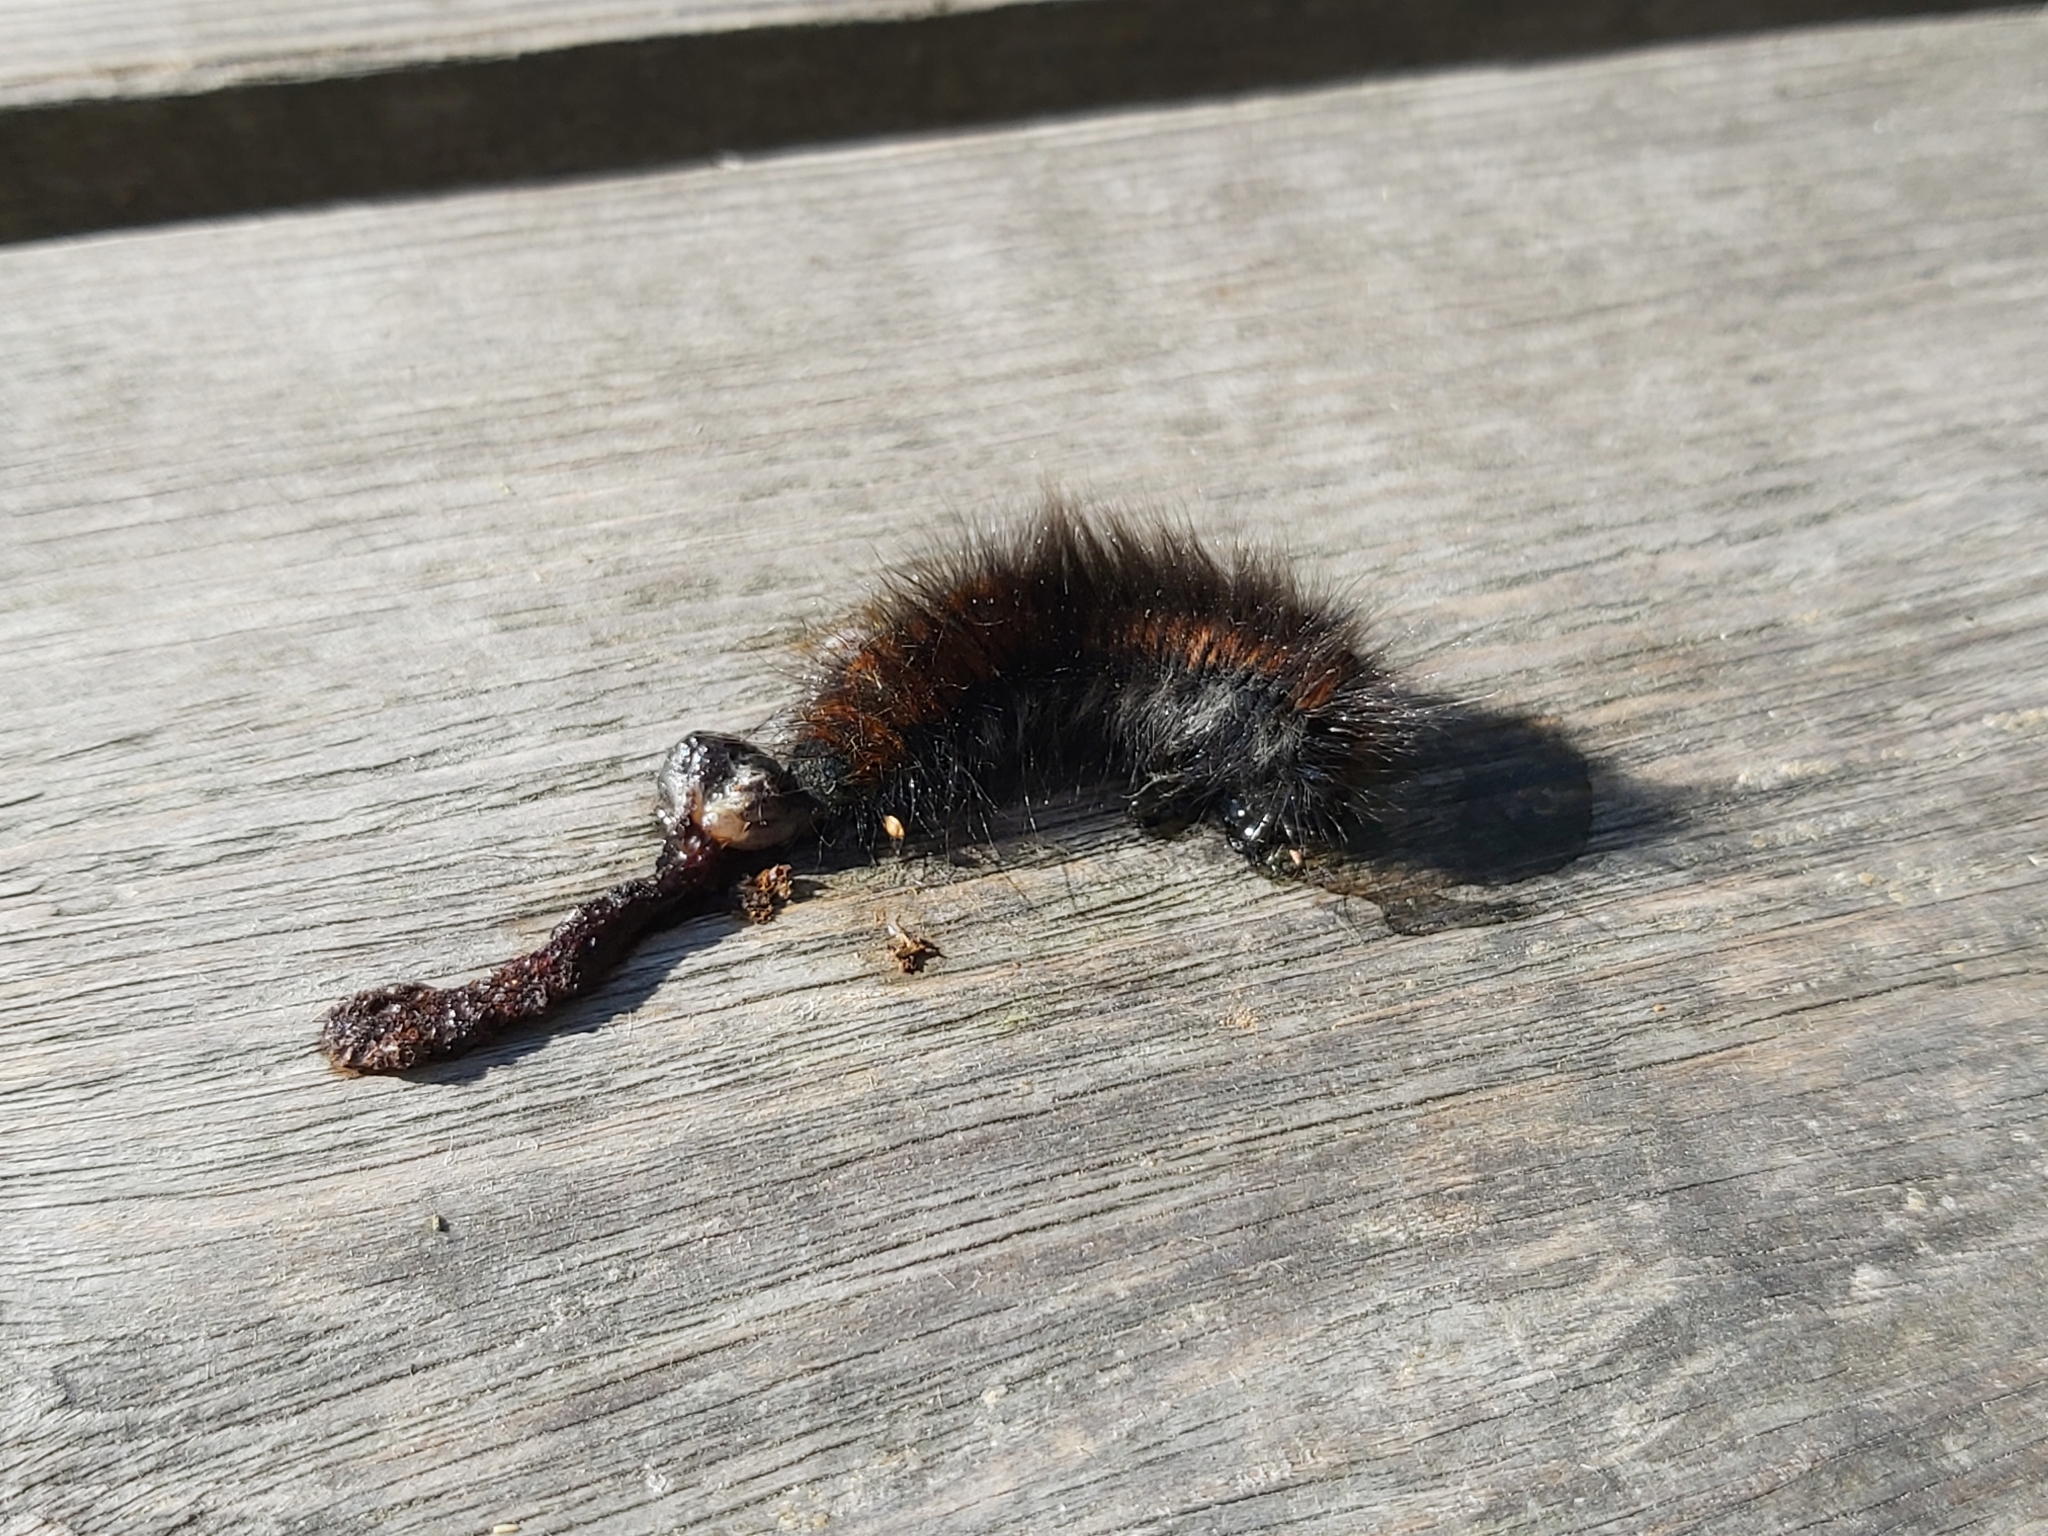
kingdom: Animalia
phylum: Arthropoda
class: Insecta
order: Lepidoptera
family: Lasiocampidae
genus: Macrothylacia
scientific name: Macrothylacia rubi
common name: Fox moth
